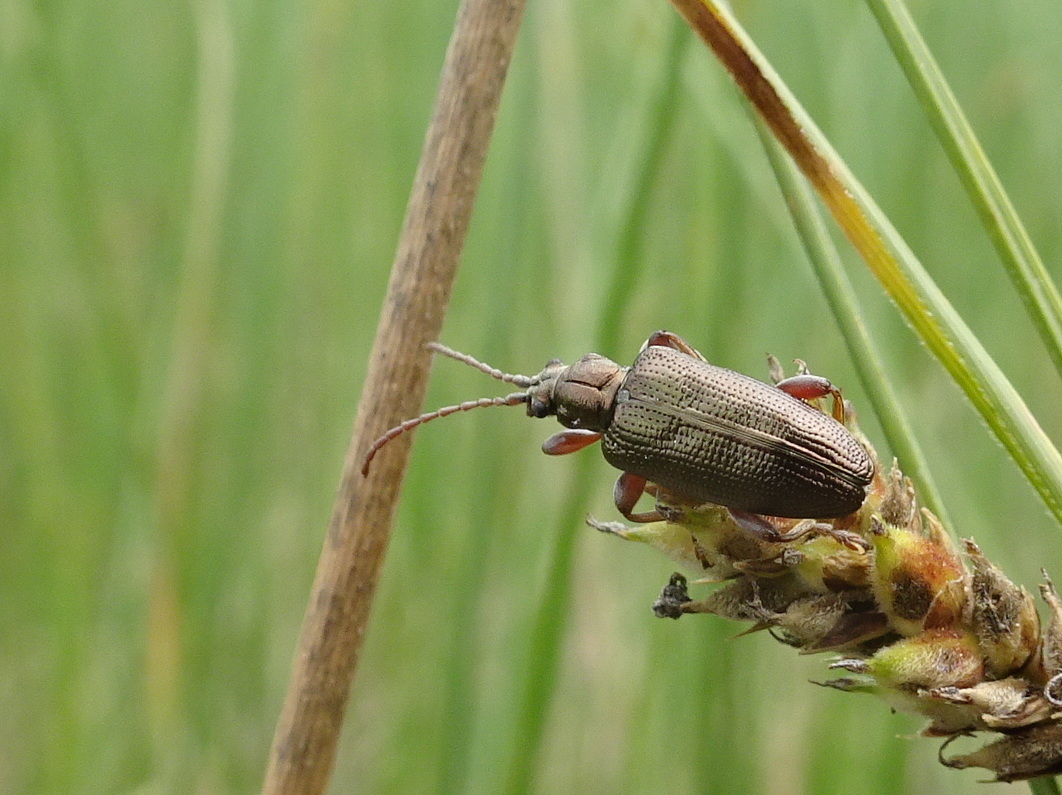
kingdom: Animalia
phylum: Arthropoda
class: Insecta
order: Coleoptera
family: Chrysomelidae
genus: Plateumaris
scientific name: Plateumaris shoemakeri
